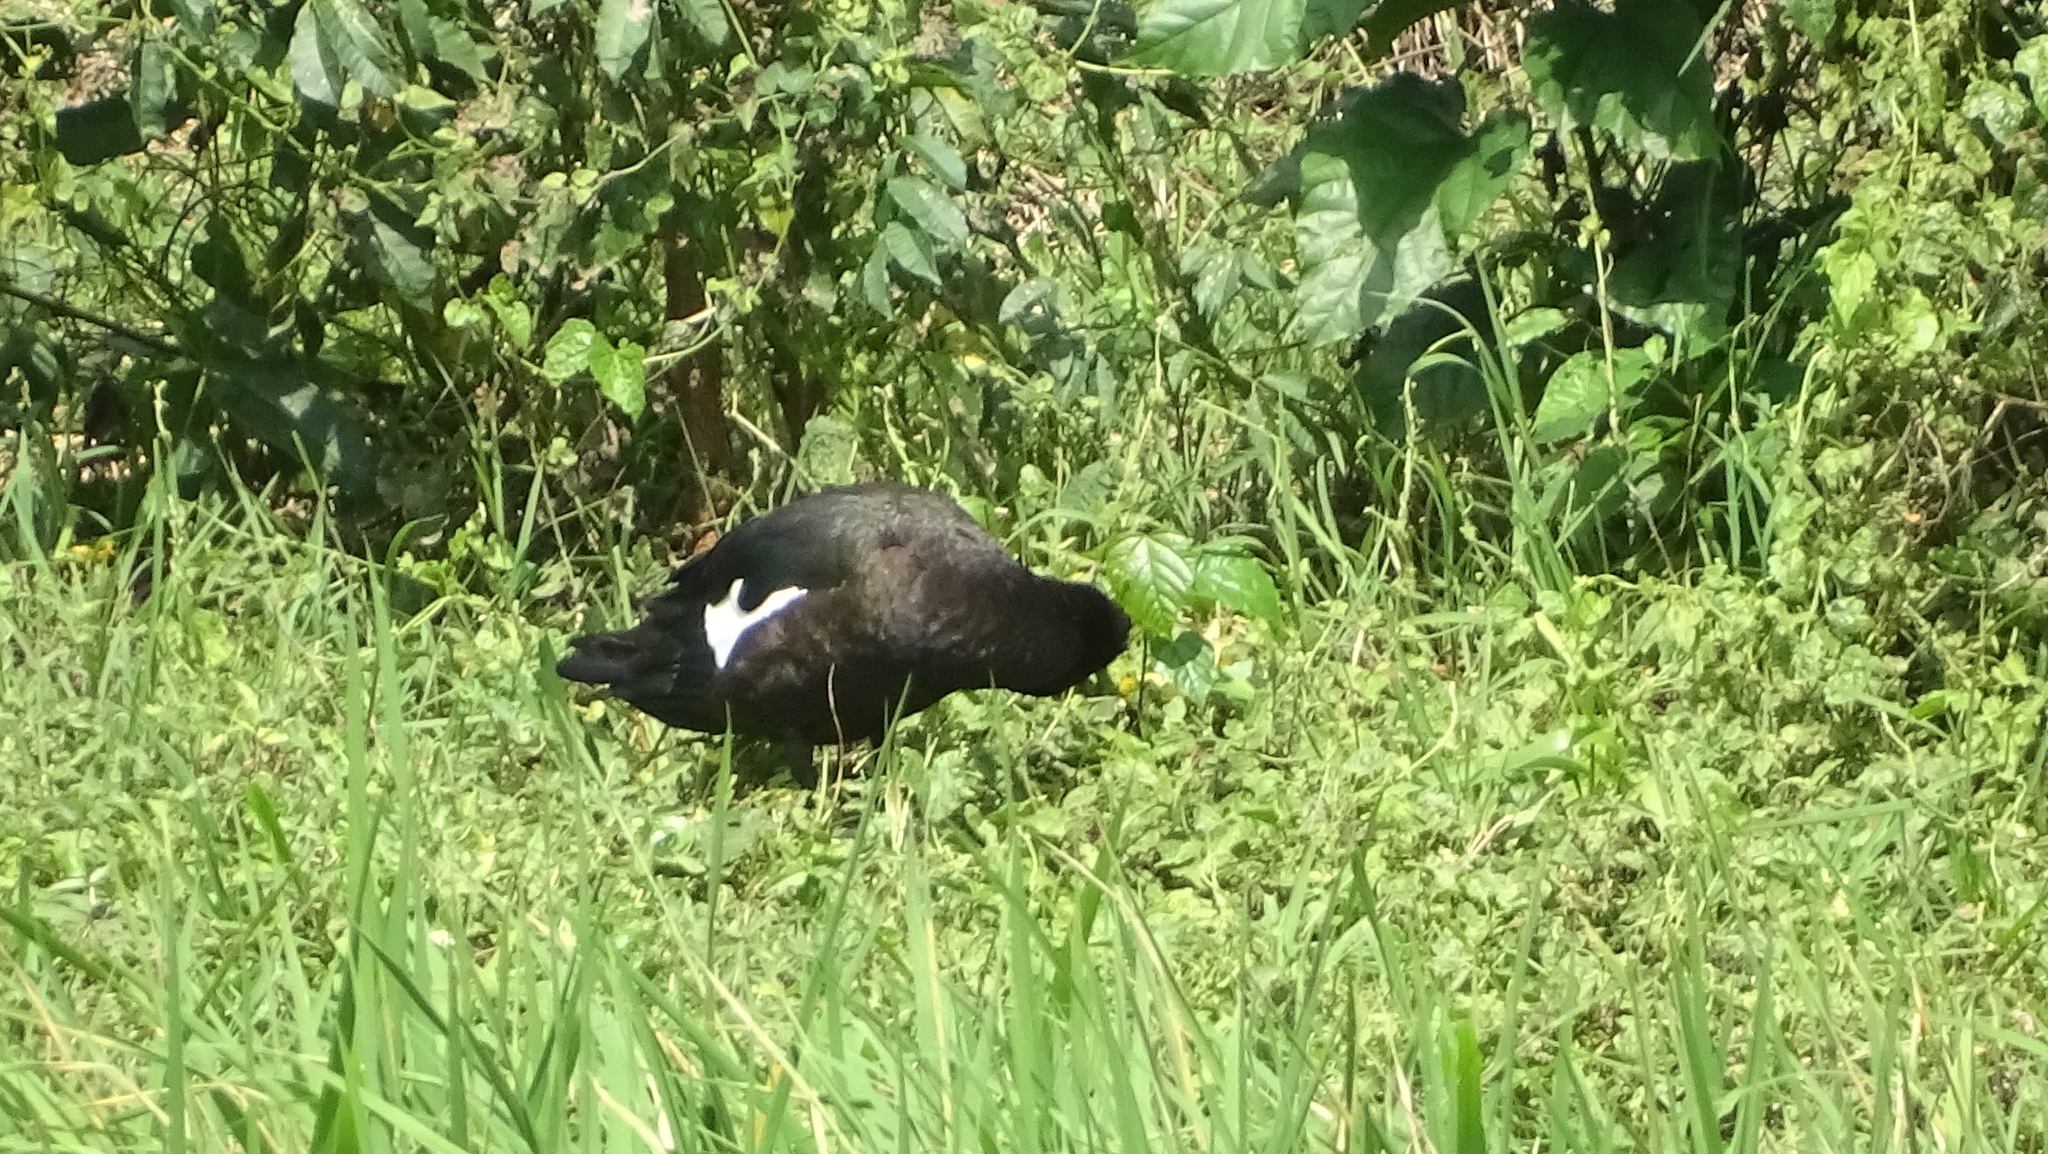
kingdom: Animalia
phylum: Chordata
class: Aves
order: Anseriformes
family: Anatidae
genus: Cairina
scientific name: Cairina moschata
